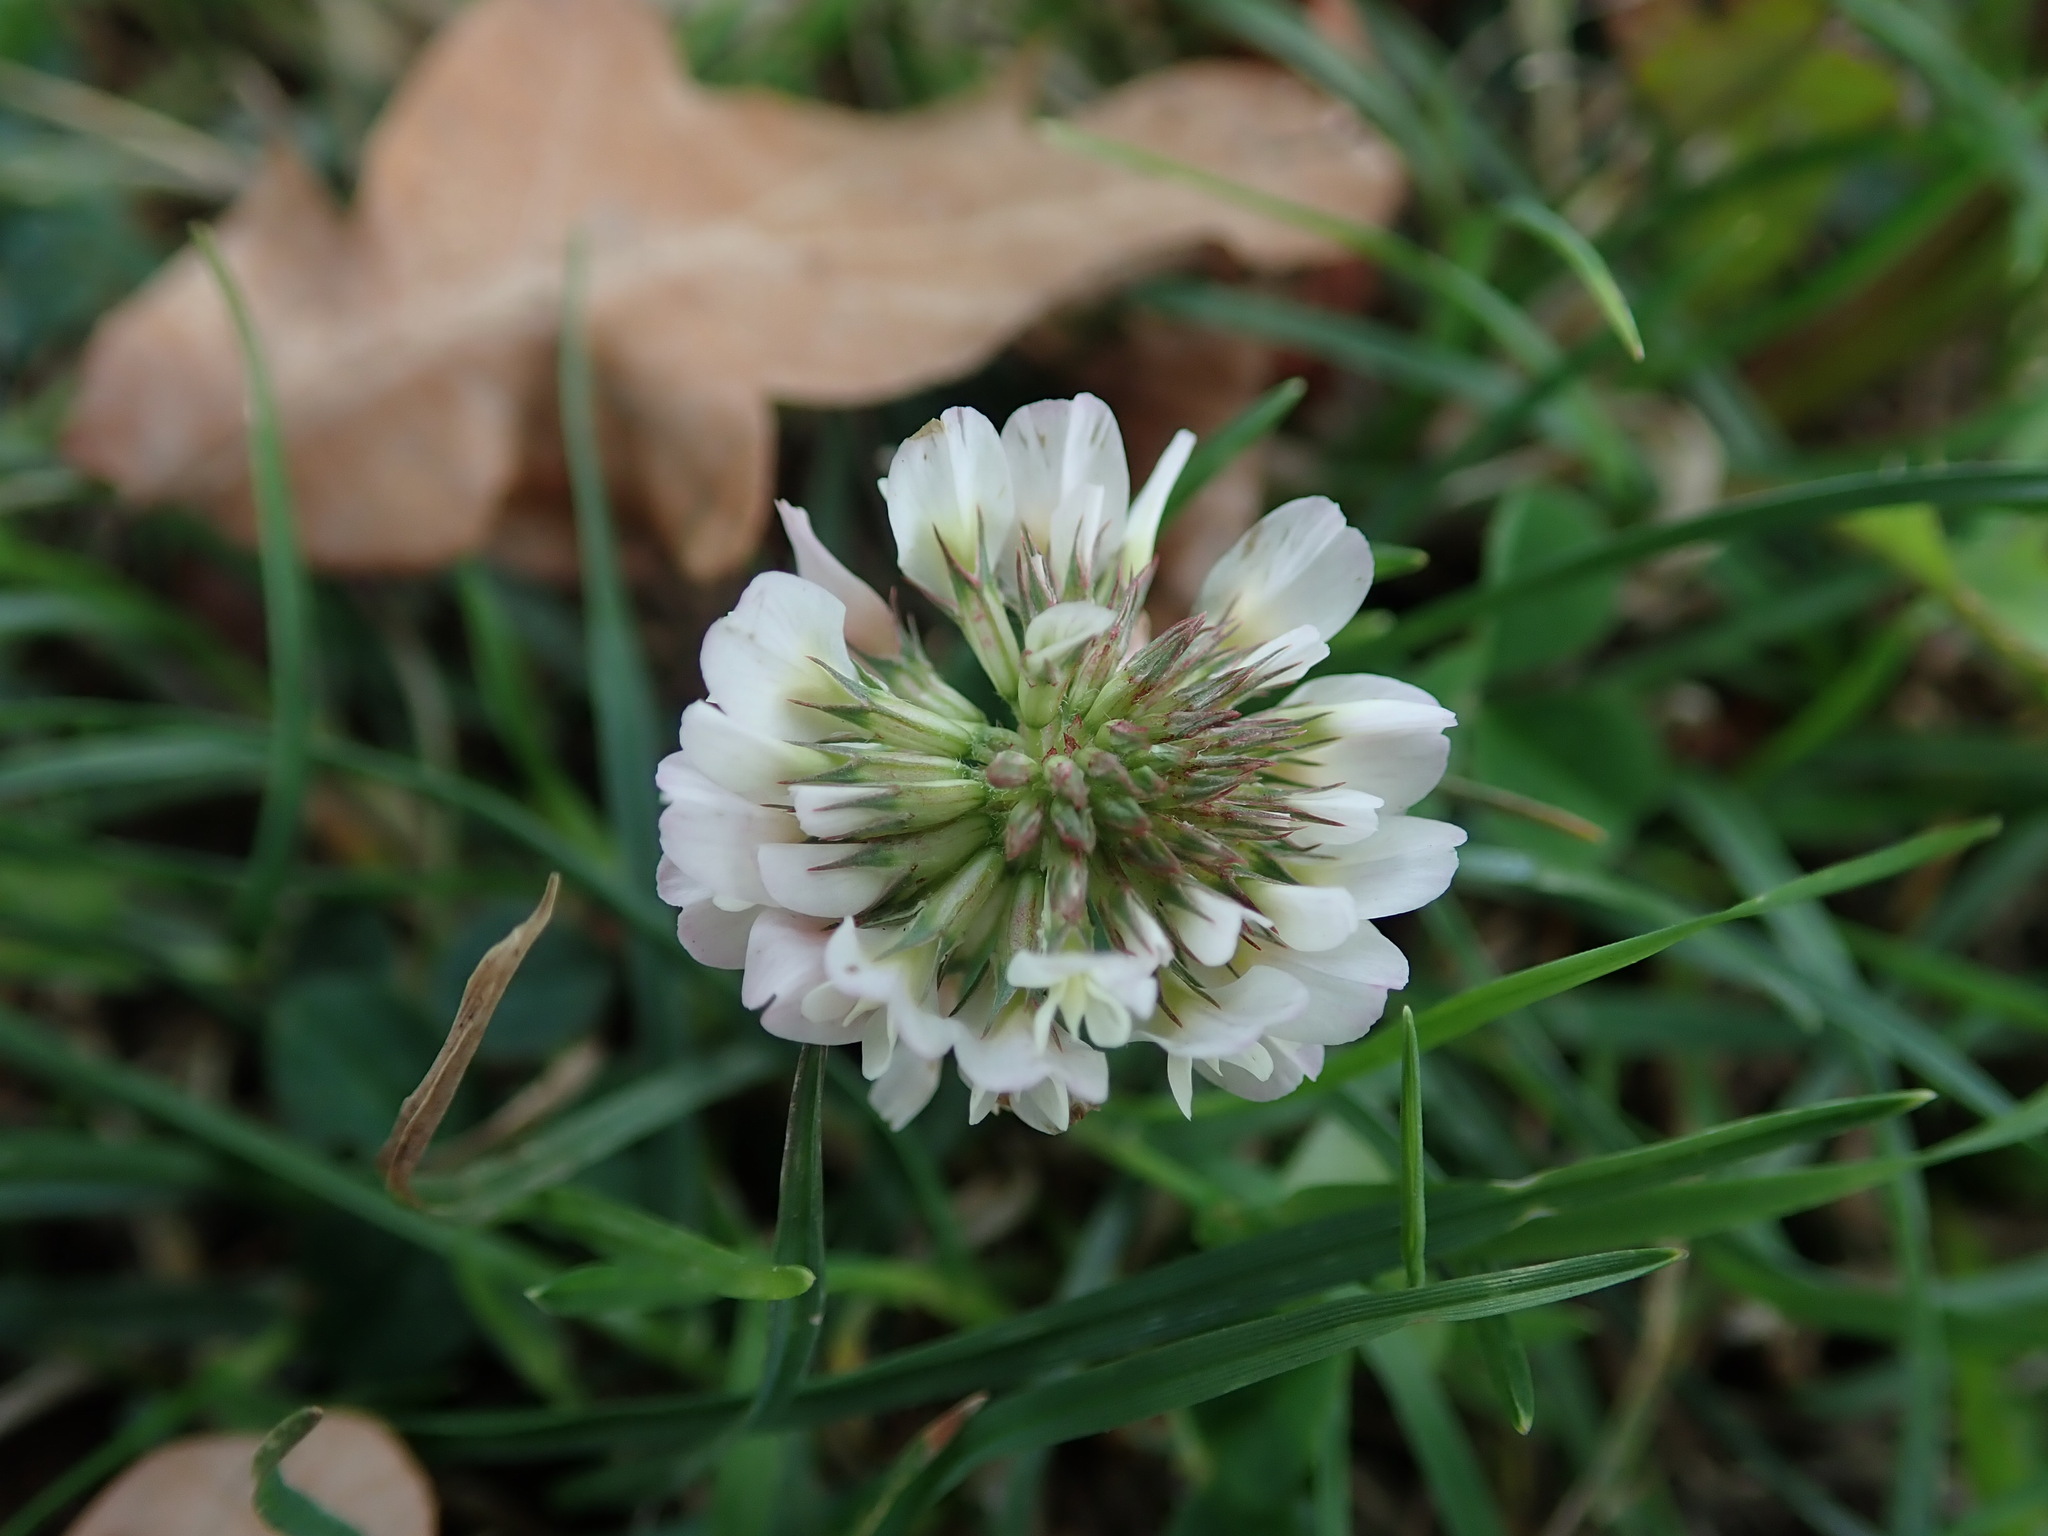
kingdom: Plantae
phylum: Tracheophyta
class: Magnoliopsida
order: Fabales
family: Fabaceae
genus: Trifolium
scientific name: Trifolium repens
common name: White clover
